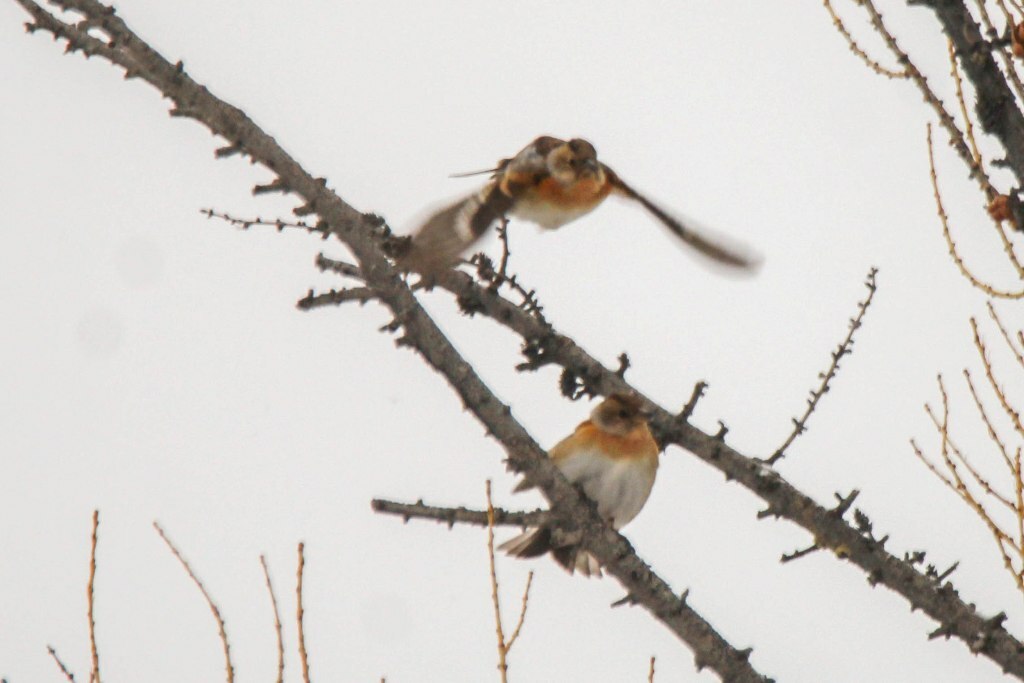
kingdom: Animalia
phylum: Chordata
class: Aves
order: Passeriformes
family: Fringillidae
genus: Fringilla
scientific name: Fringilla montifringilla
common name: Brambling
